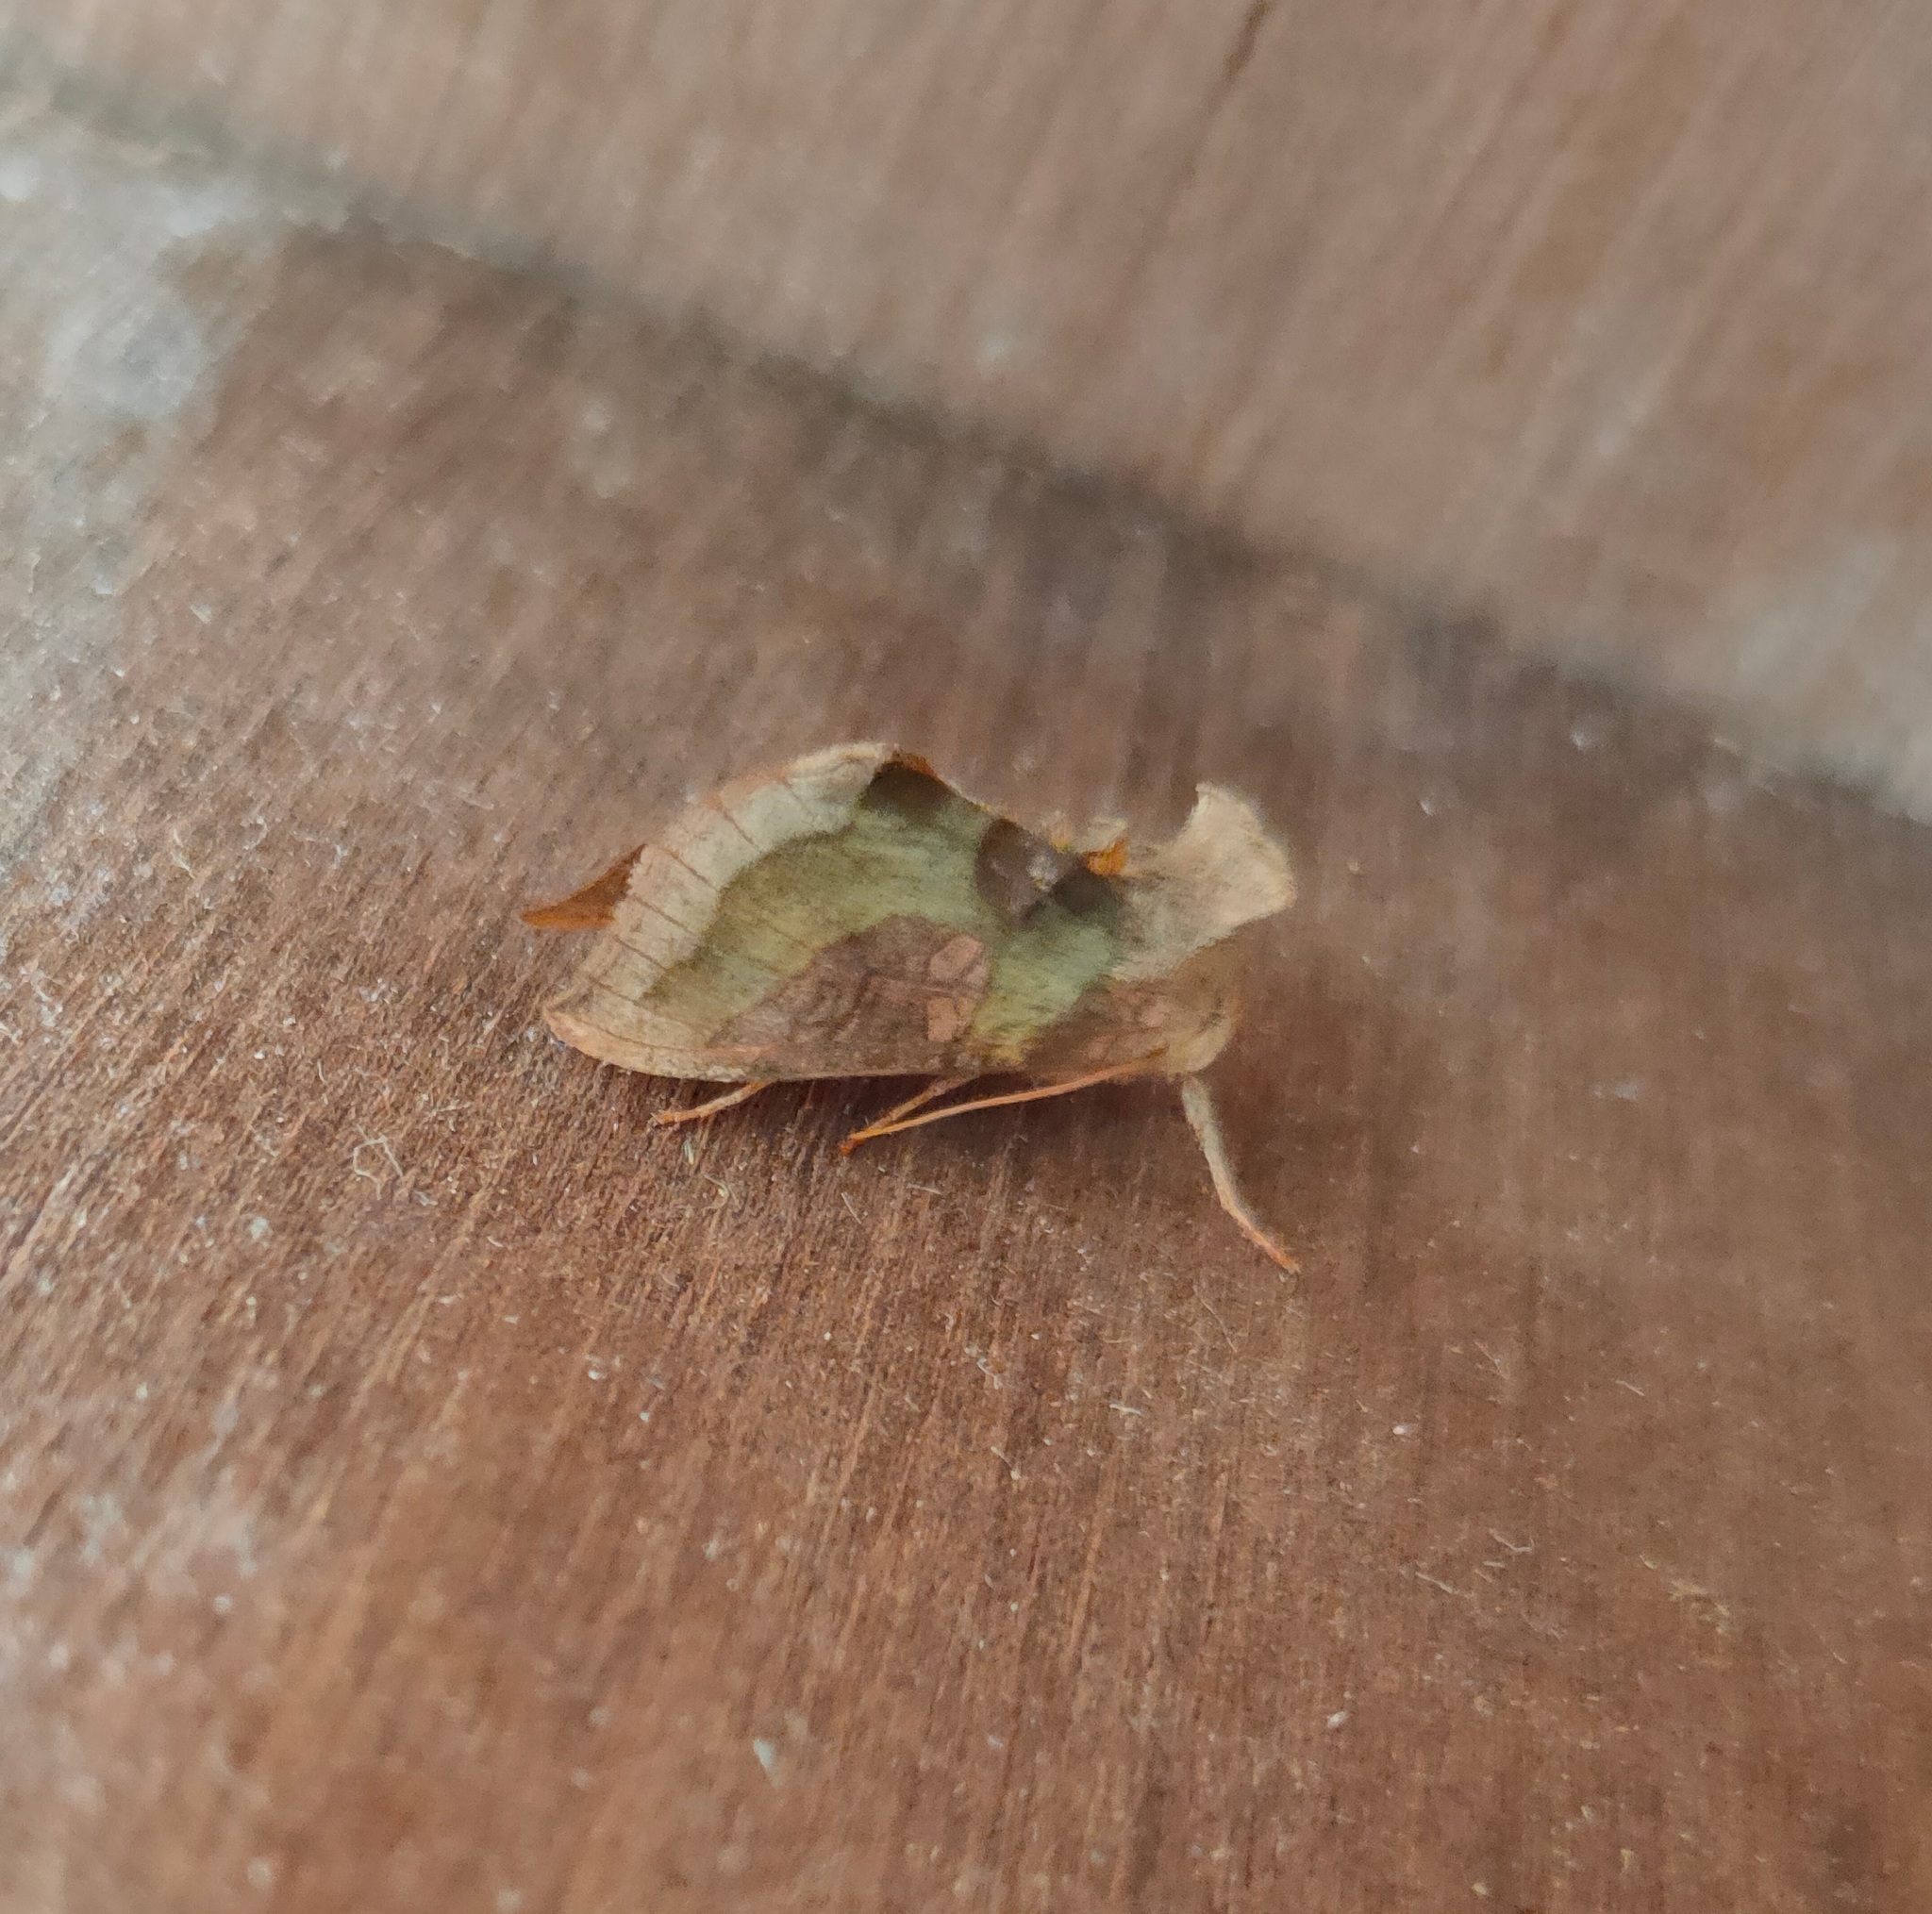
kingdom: Animalia
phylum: Arthropoda
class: Insecta
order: Lepidoptera
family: Noctuidae
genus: Diachrysia
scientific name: Diachrysia chrysitis
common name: Burnished brass
